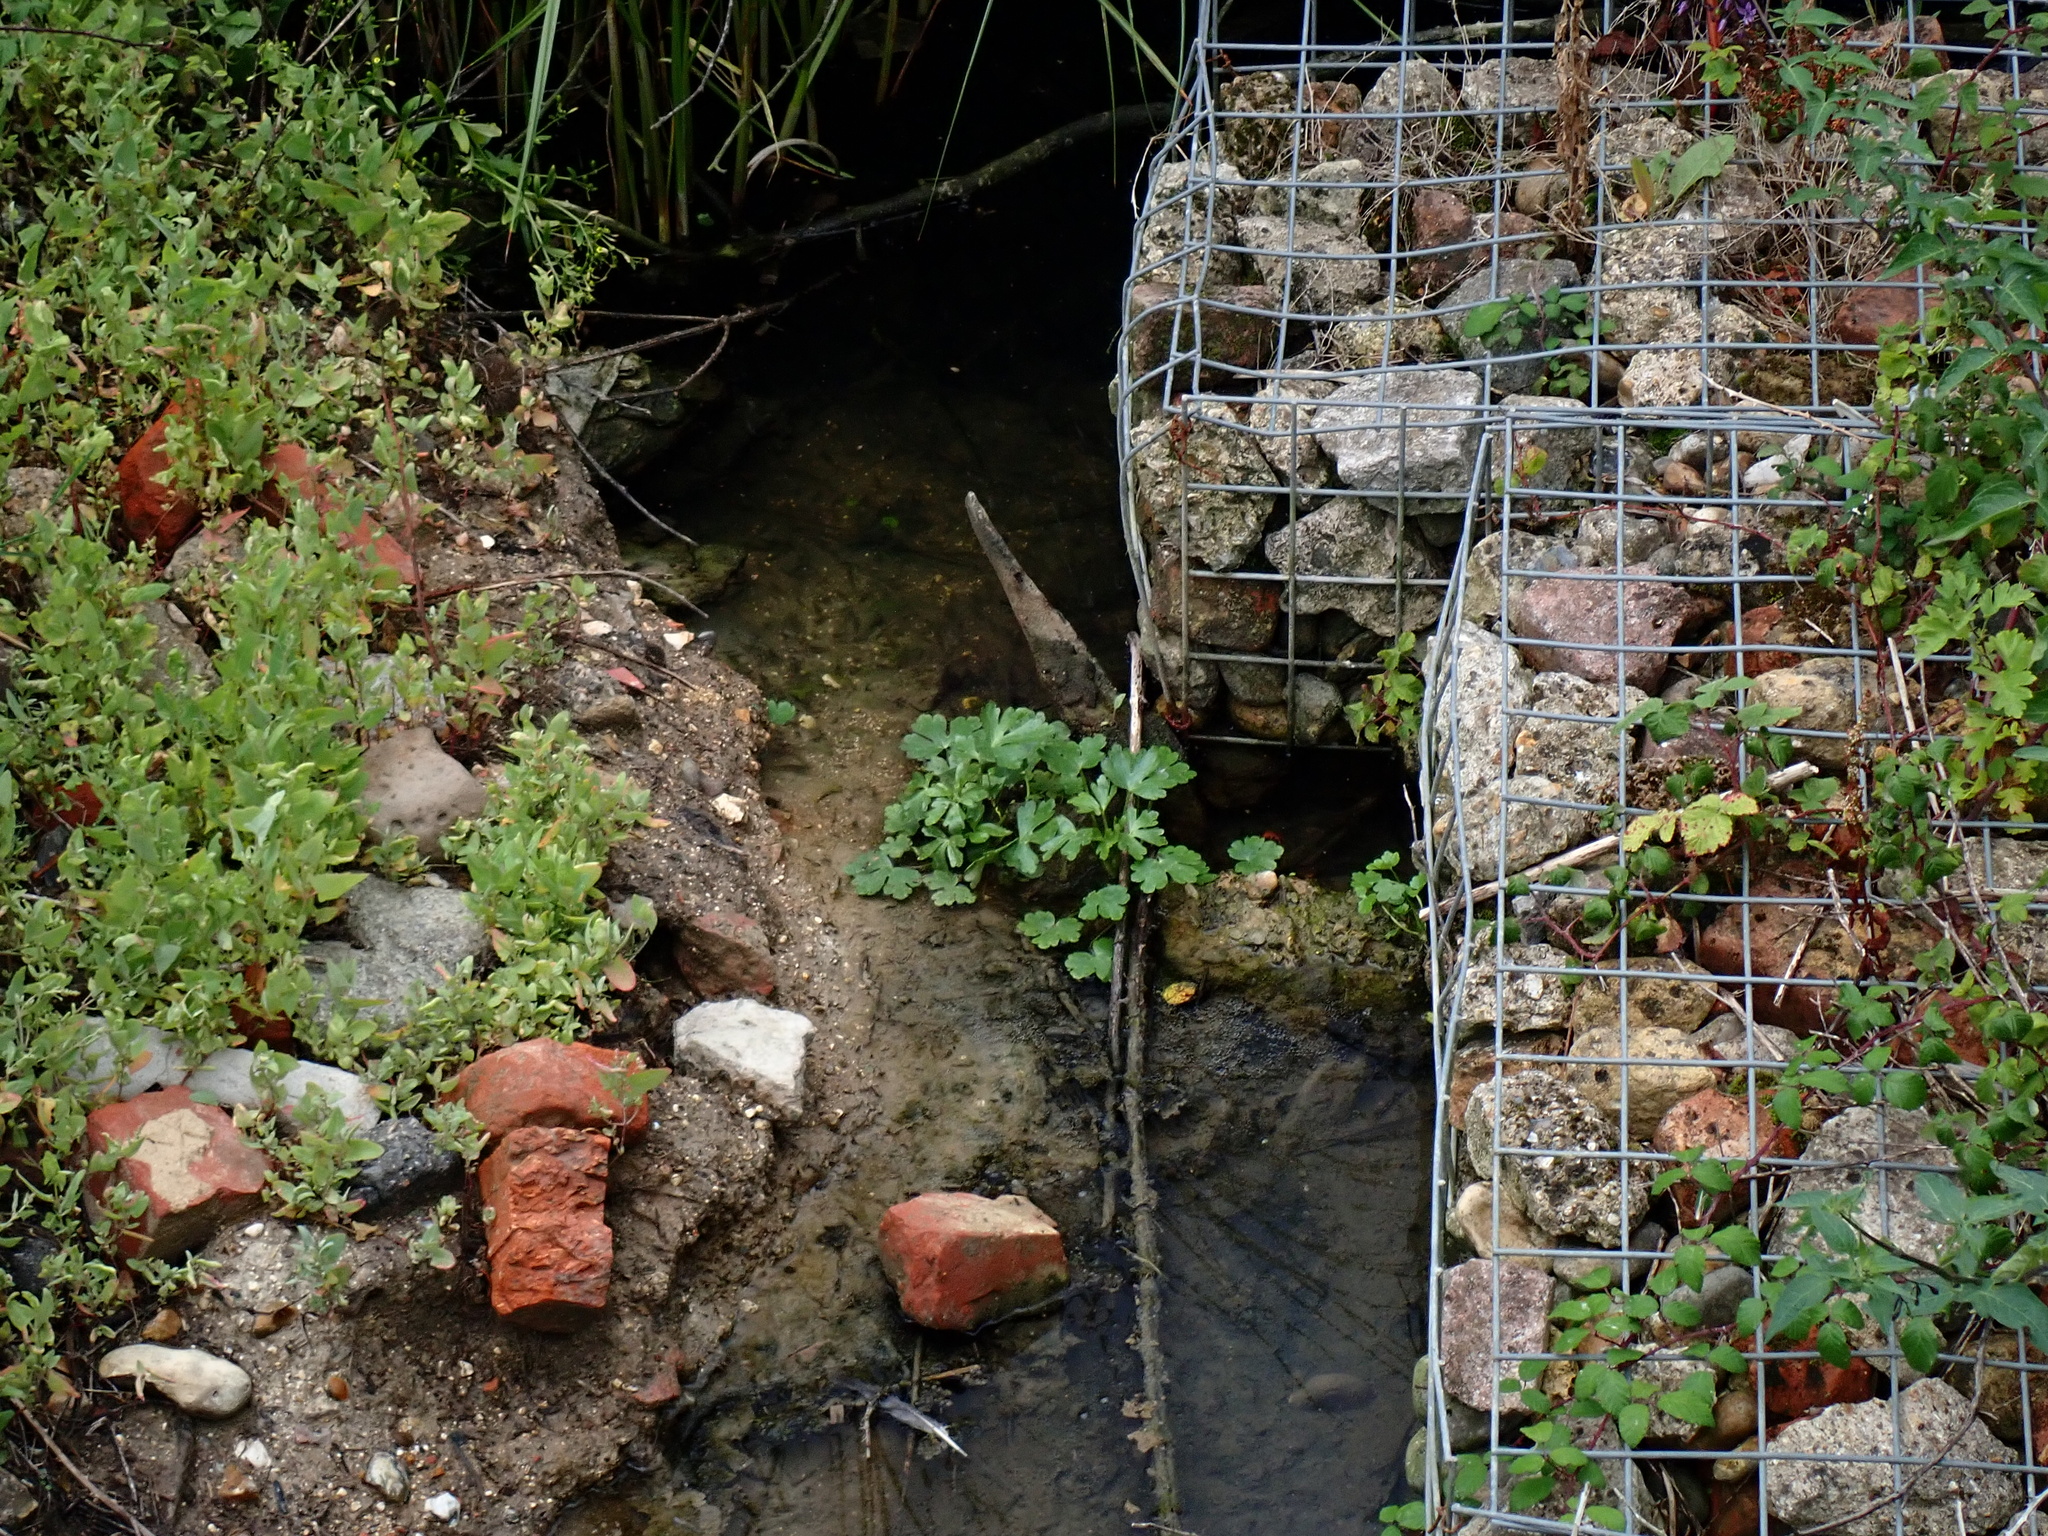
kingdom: Plantae
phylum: Tracheophyta
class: Magnoliopsida
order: Ranunculales
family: Ranunculaceae
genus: Ranunculus
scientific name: Ranunculus sceleratus
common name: Celery-leaved buttercup
